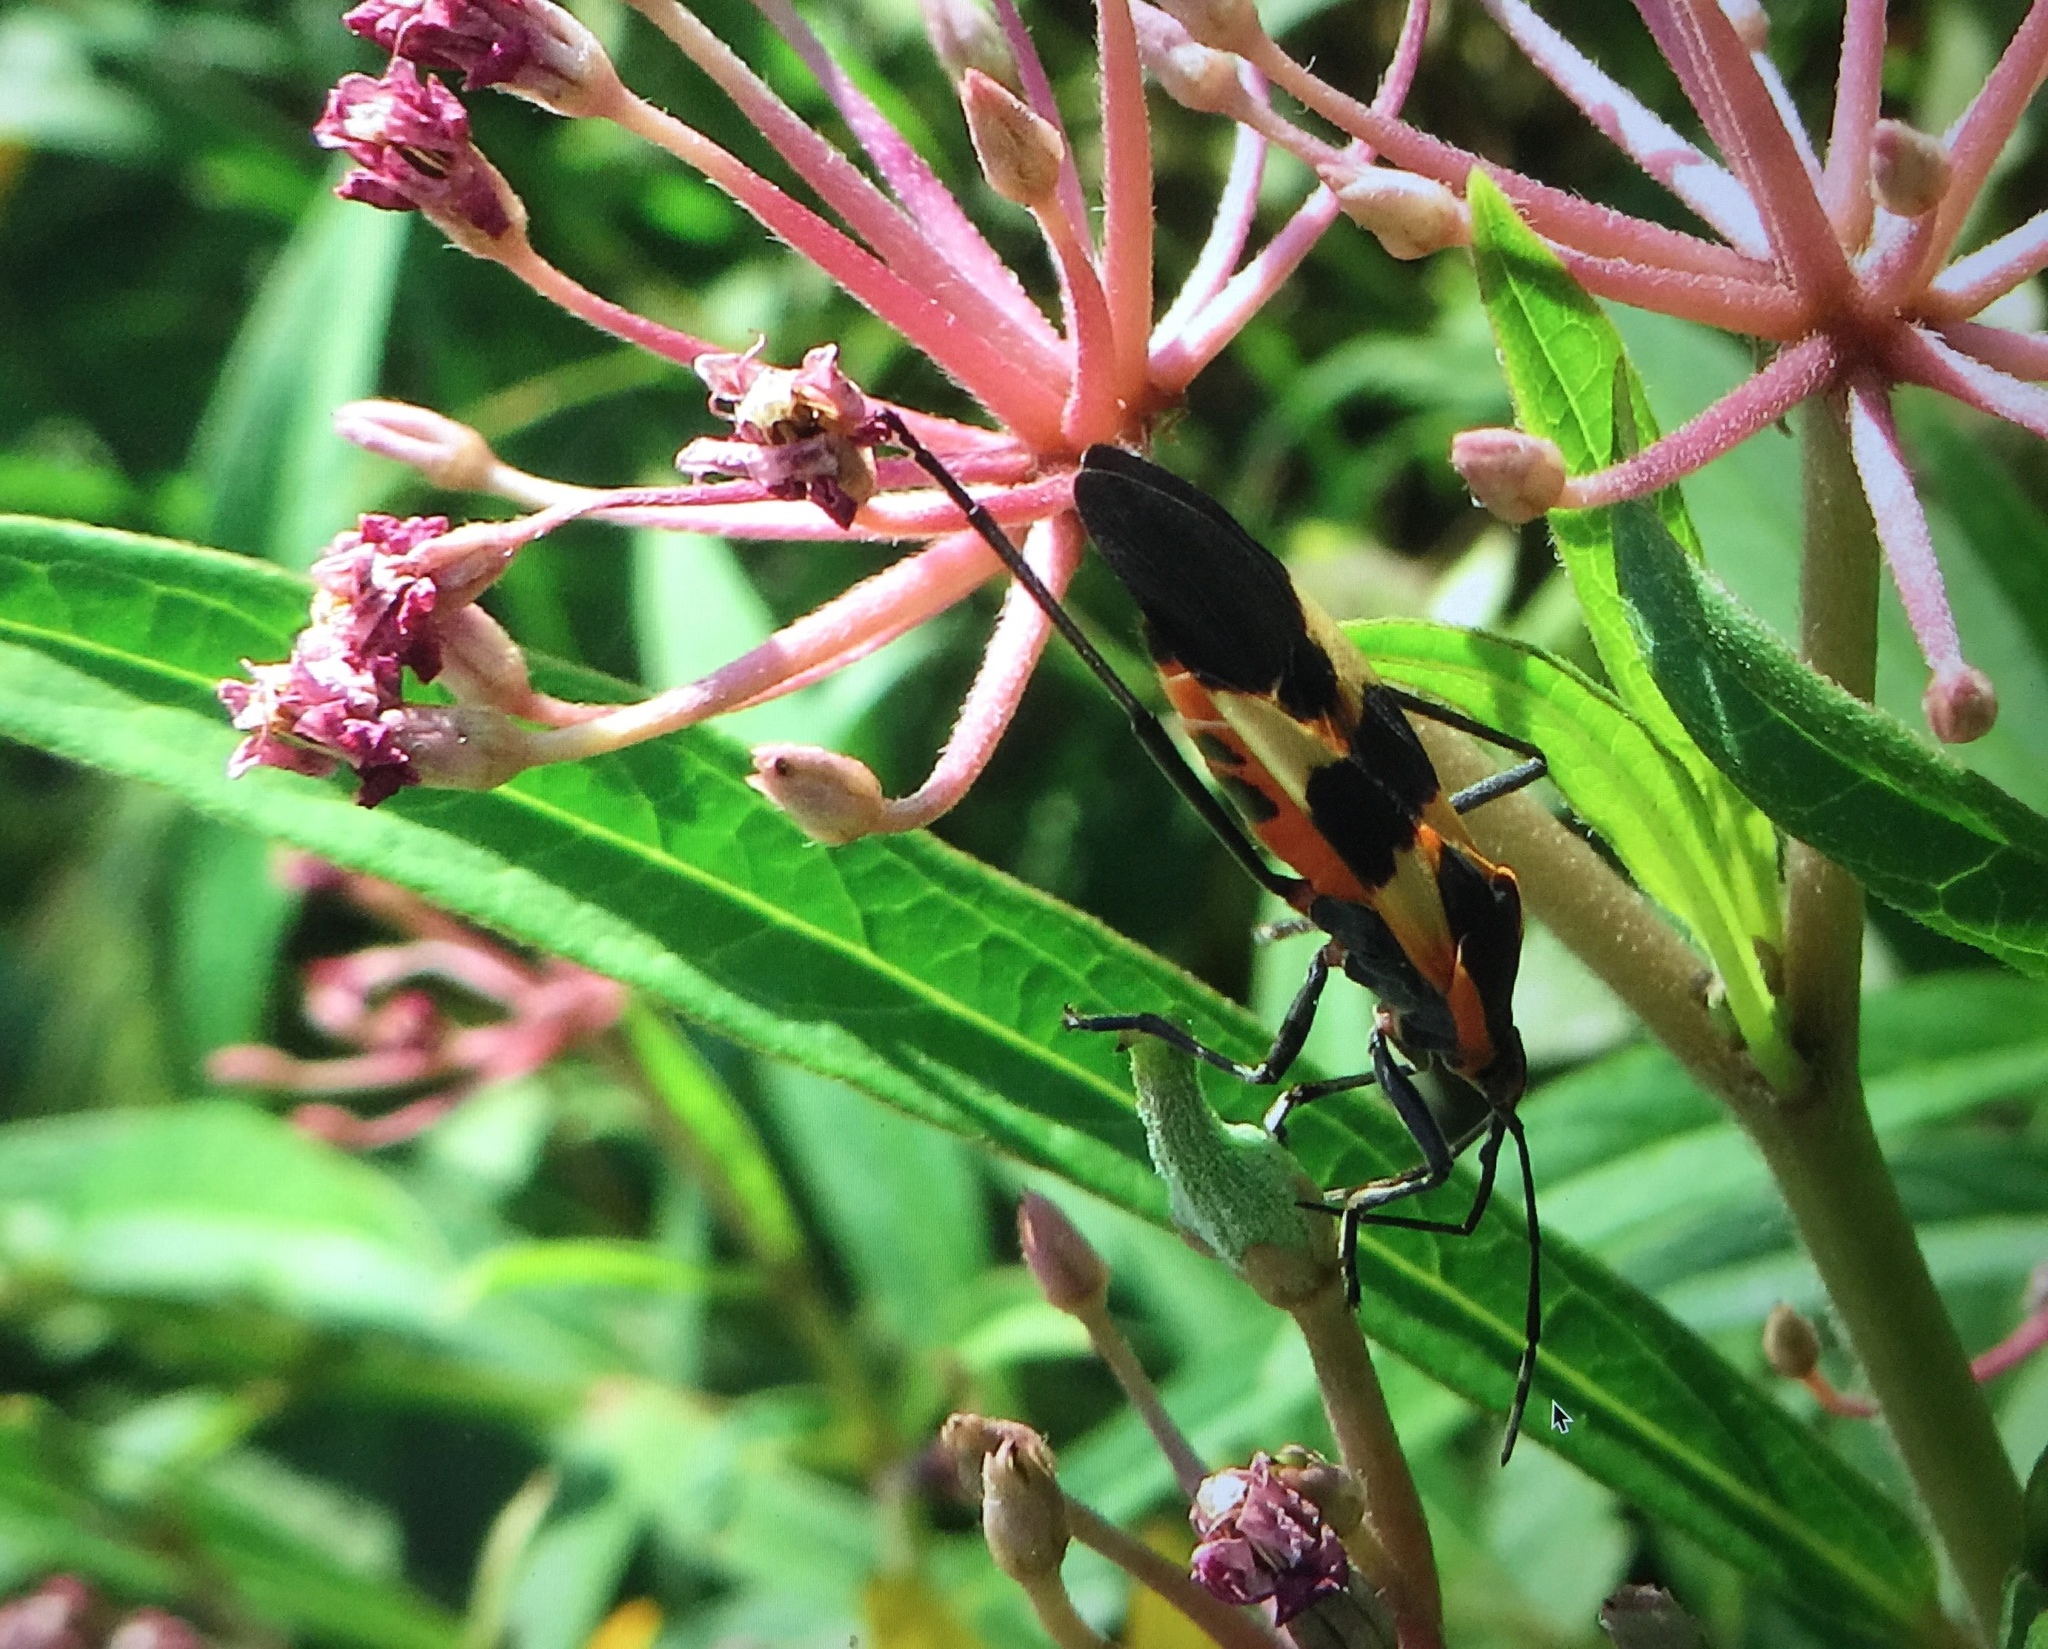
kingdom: Animalia
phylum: Arthropoda
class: Insecta
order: Hemiptera
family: Lygaeidae
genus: Oncopeltus
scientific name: Oncopeltus fasciatus
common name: Large milkweed bug
